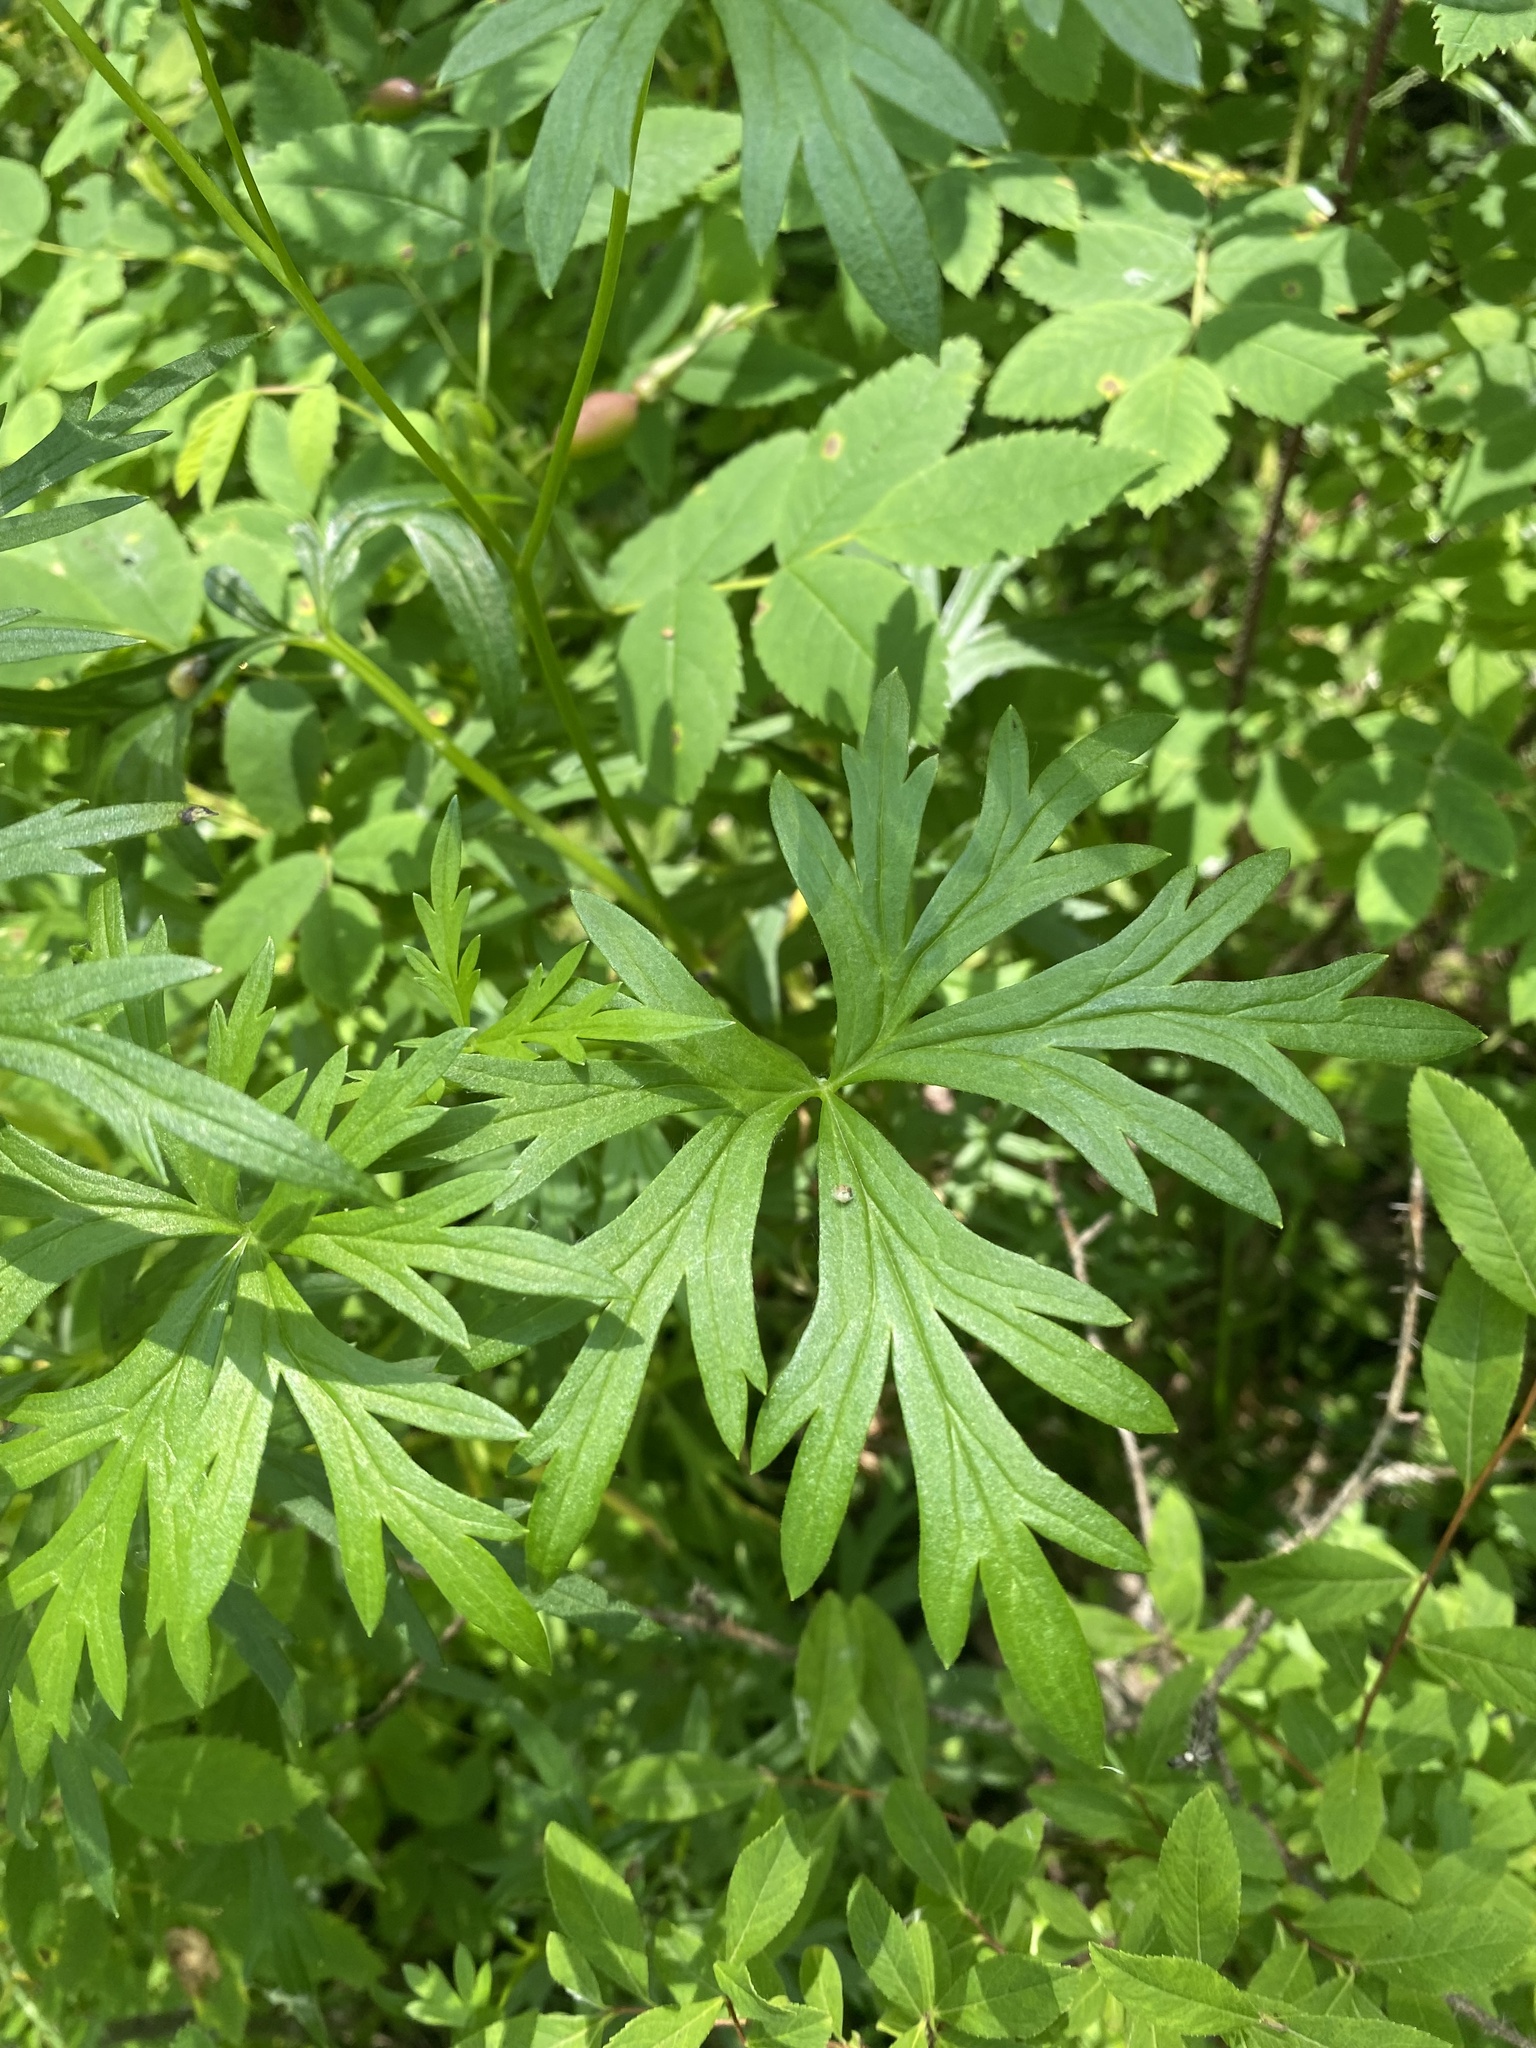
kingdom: Plantae
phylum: Tracheophyta
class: Magnoliopsida
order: Ranunculales
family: Ranunculaceae
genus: Aconitum
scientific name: Aconitum baicalense
